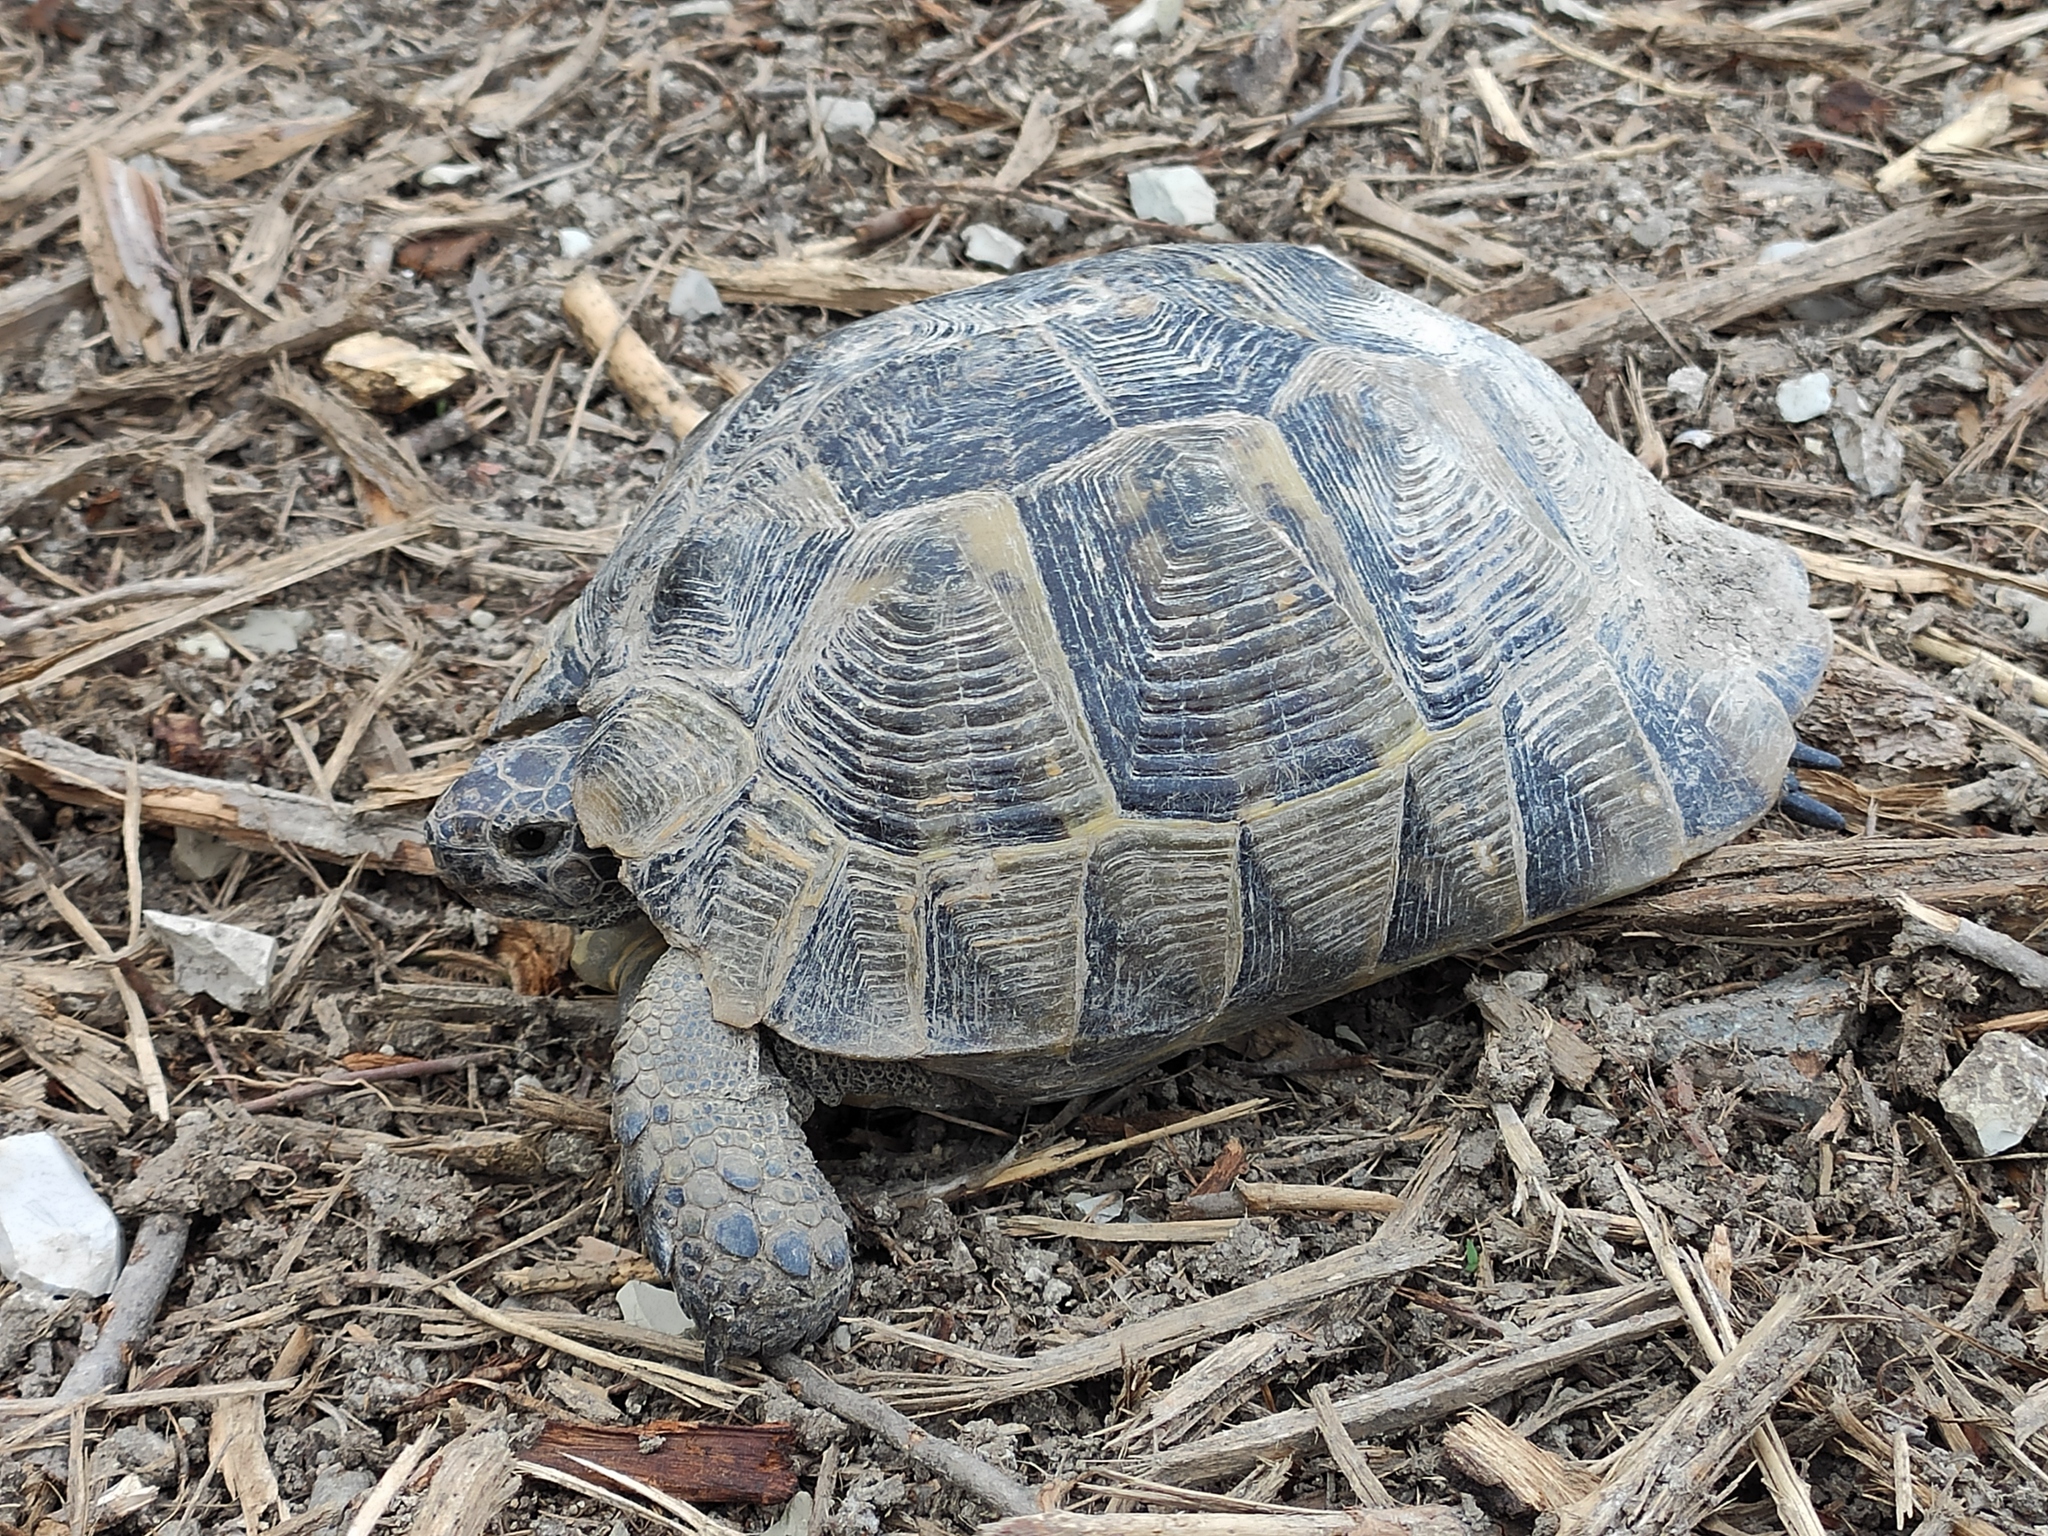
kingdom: Animalia
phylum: Chordata
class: Testudines
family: Testudinidae
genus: Testudo
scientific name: Testudo graeca
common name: Common tortoise
